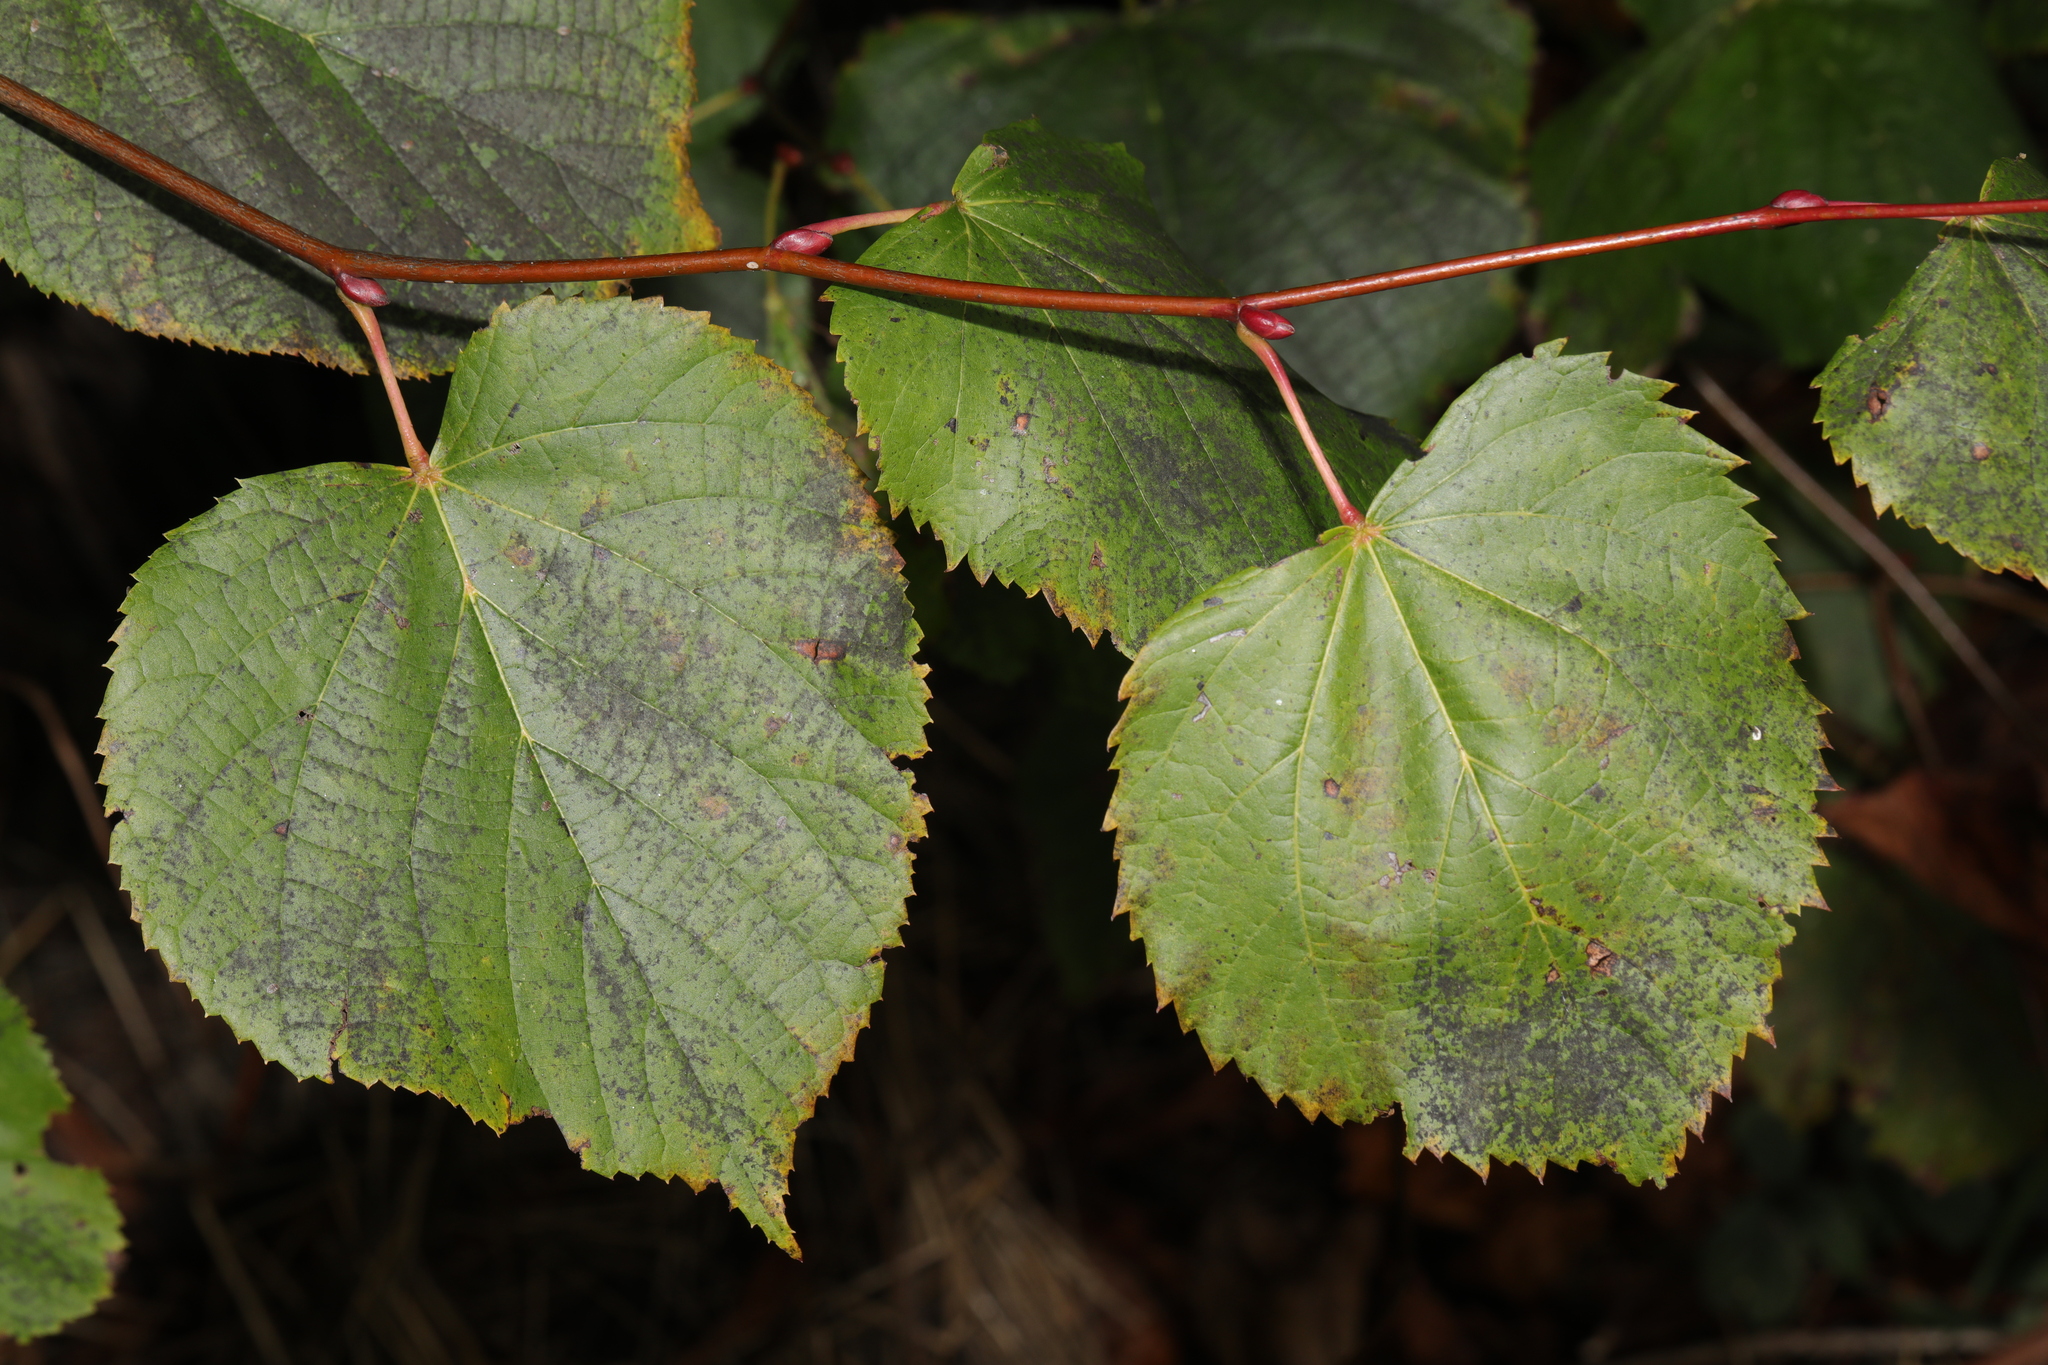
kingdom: Plantae
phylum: Tracheophyta
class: Magnoliopsida
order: Malvales
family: Malvaceae
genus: Tilia
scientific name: Tilia europaea
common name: European linden
